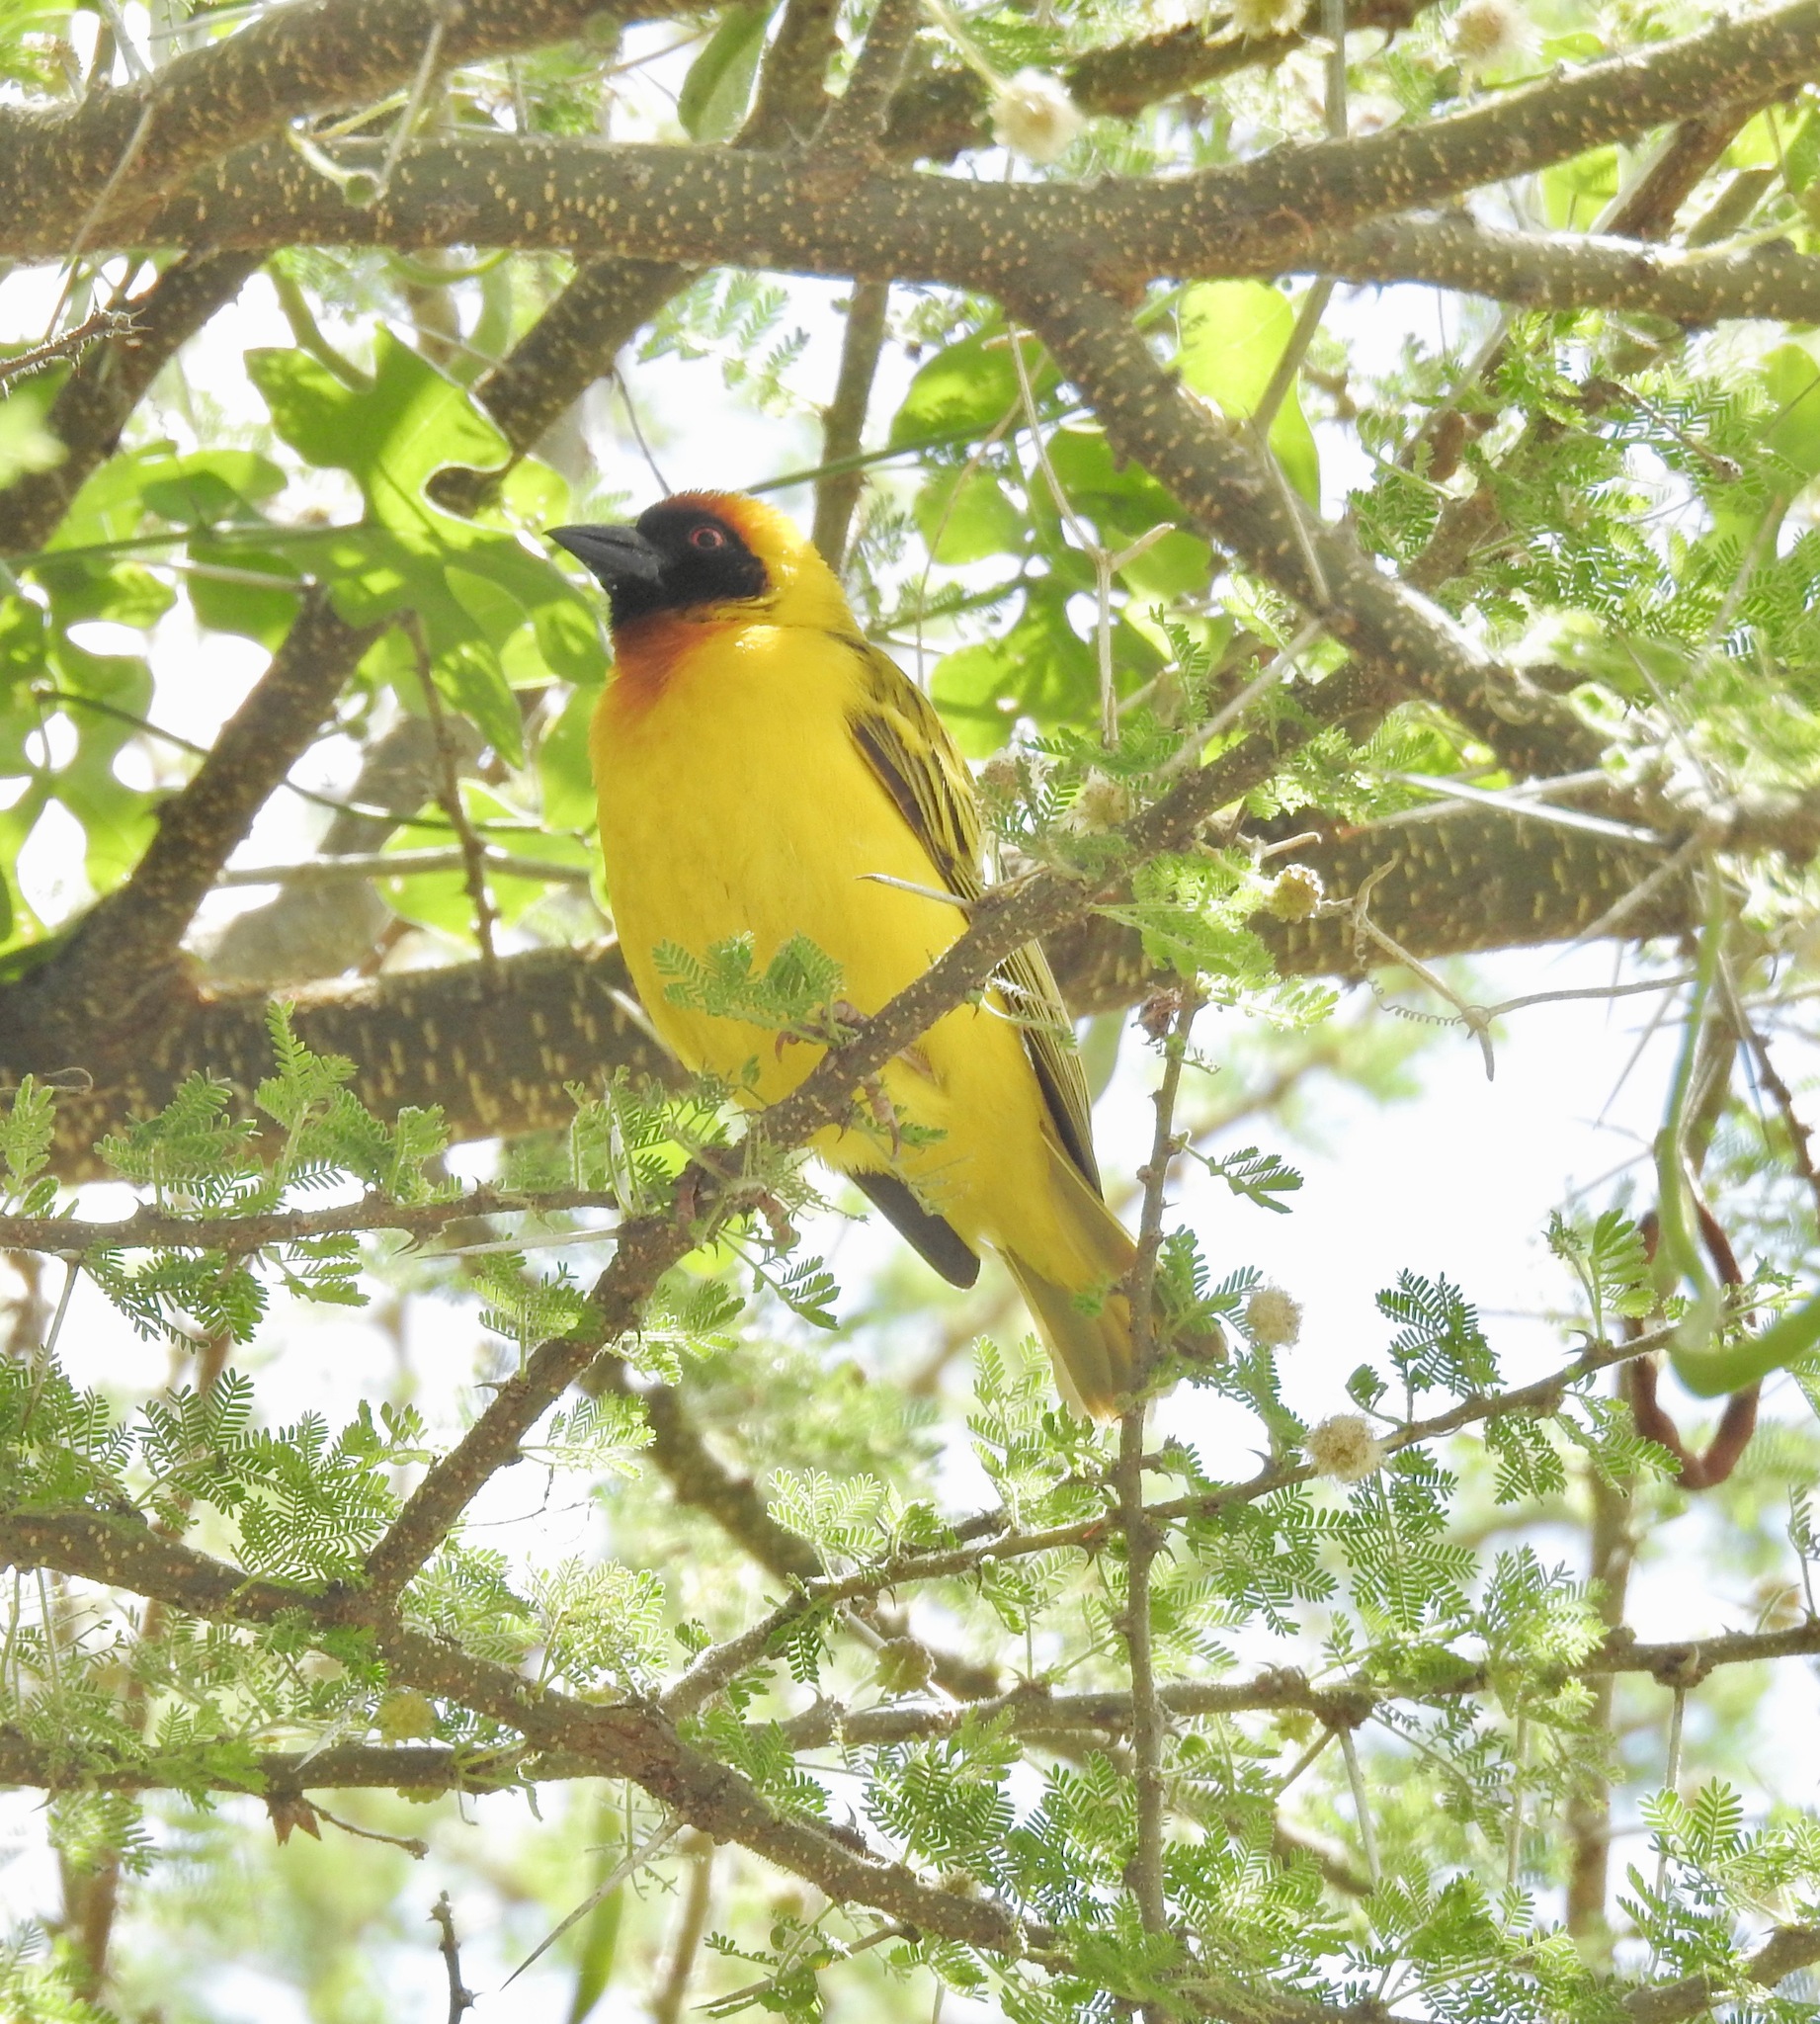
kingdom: Animalia
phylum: Chordata
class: Aves
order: Passeriformes
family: Ploceidae
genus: Ploceus
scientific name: Ploceus vitellinus
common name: Vitelline masked weaver
